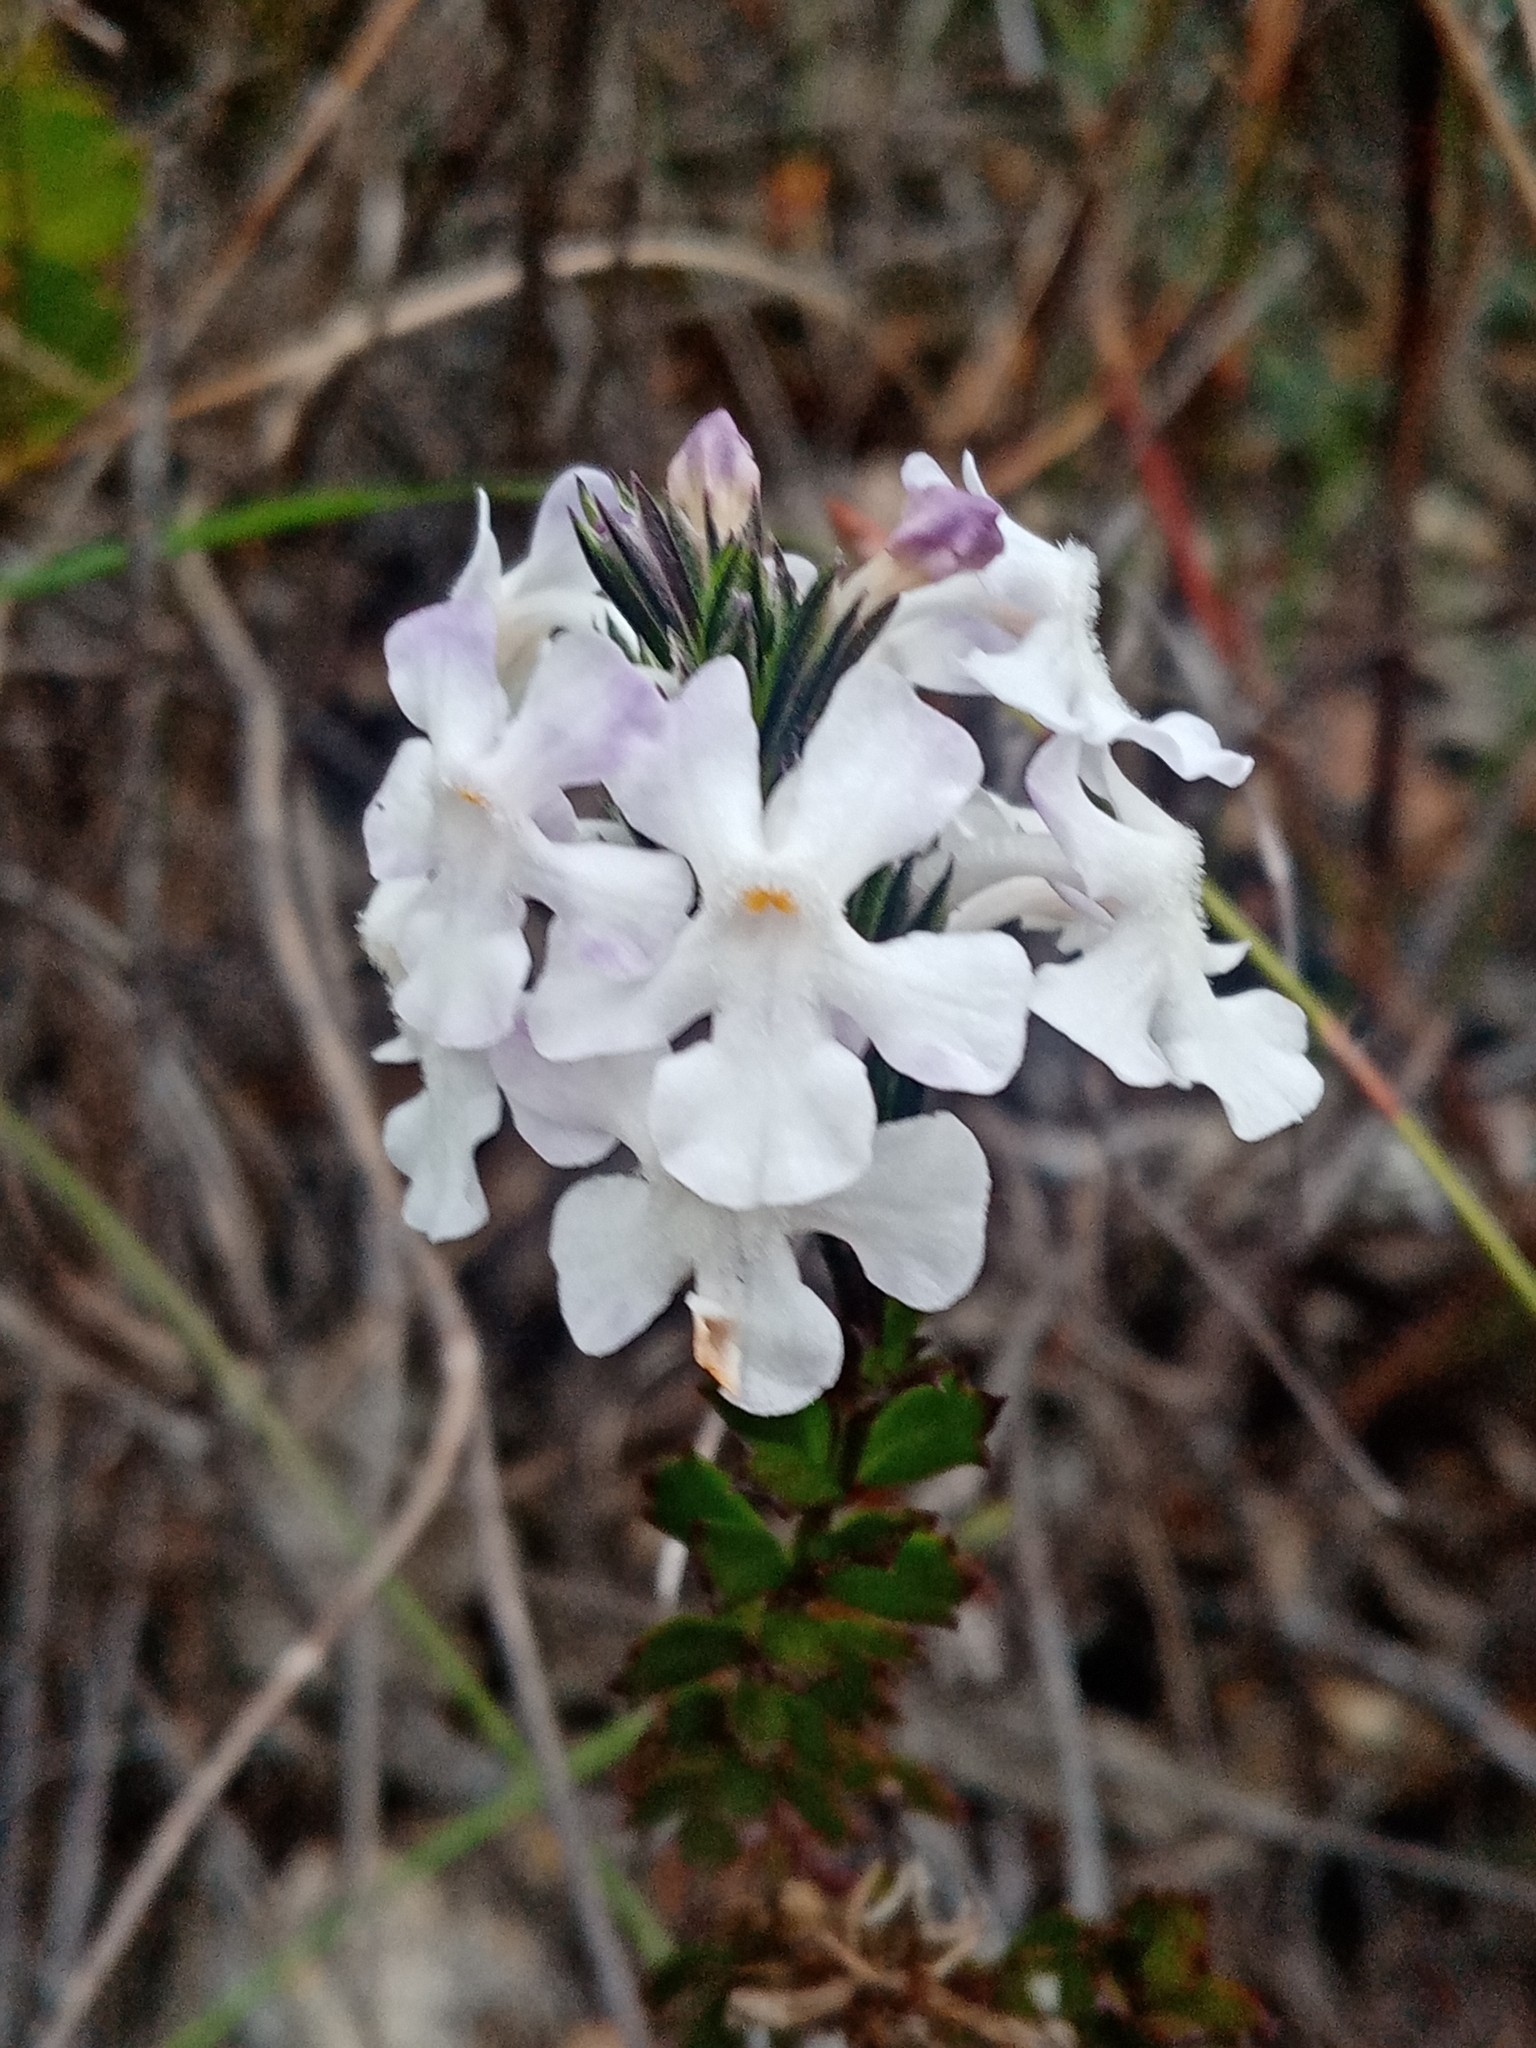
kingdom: Plantae
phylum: Tracheophyta
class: Magnoliopsida
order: Lamiales
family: Verbenaceae
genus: Chascanum
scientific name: Chascanum cernuum
